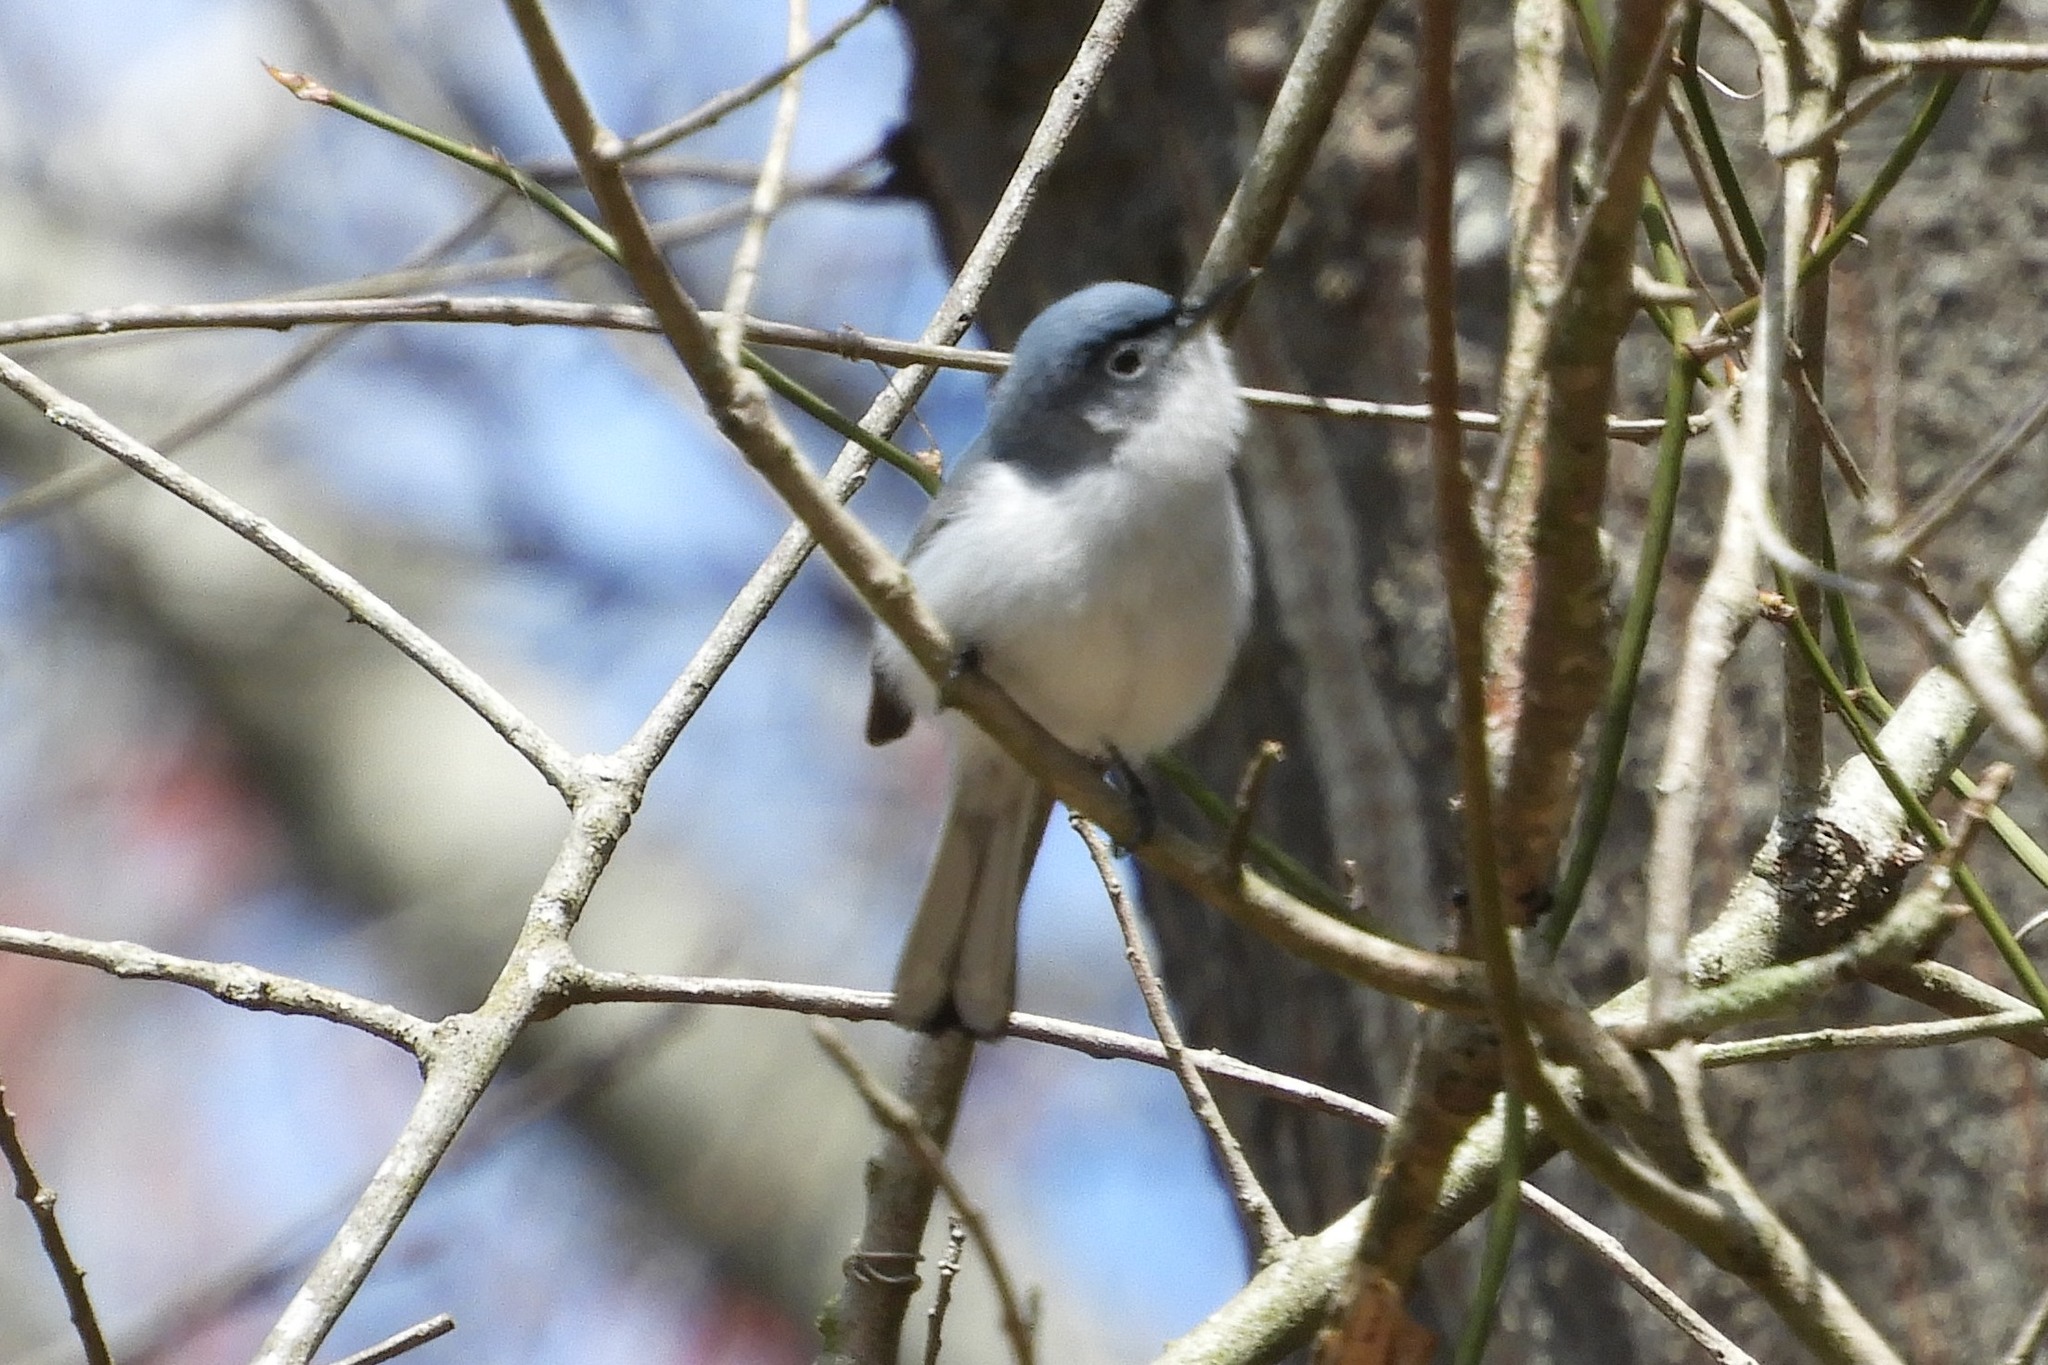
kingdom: Animalia
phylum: Chordata
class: Aves
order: Passeriformes
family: Polioptilidae
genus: Polioptila
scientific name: Polioptila caerulea
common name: Blue-gray gnatcatcher
